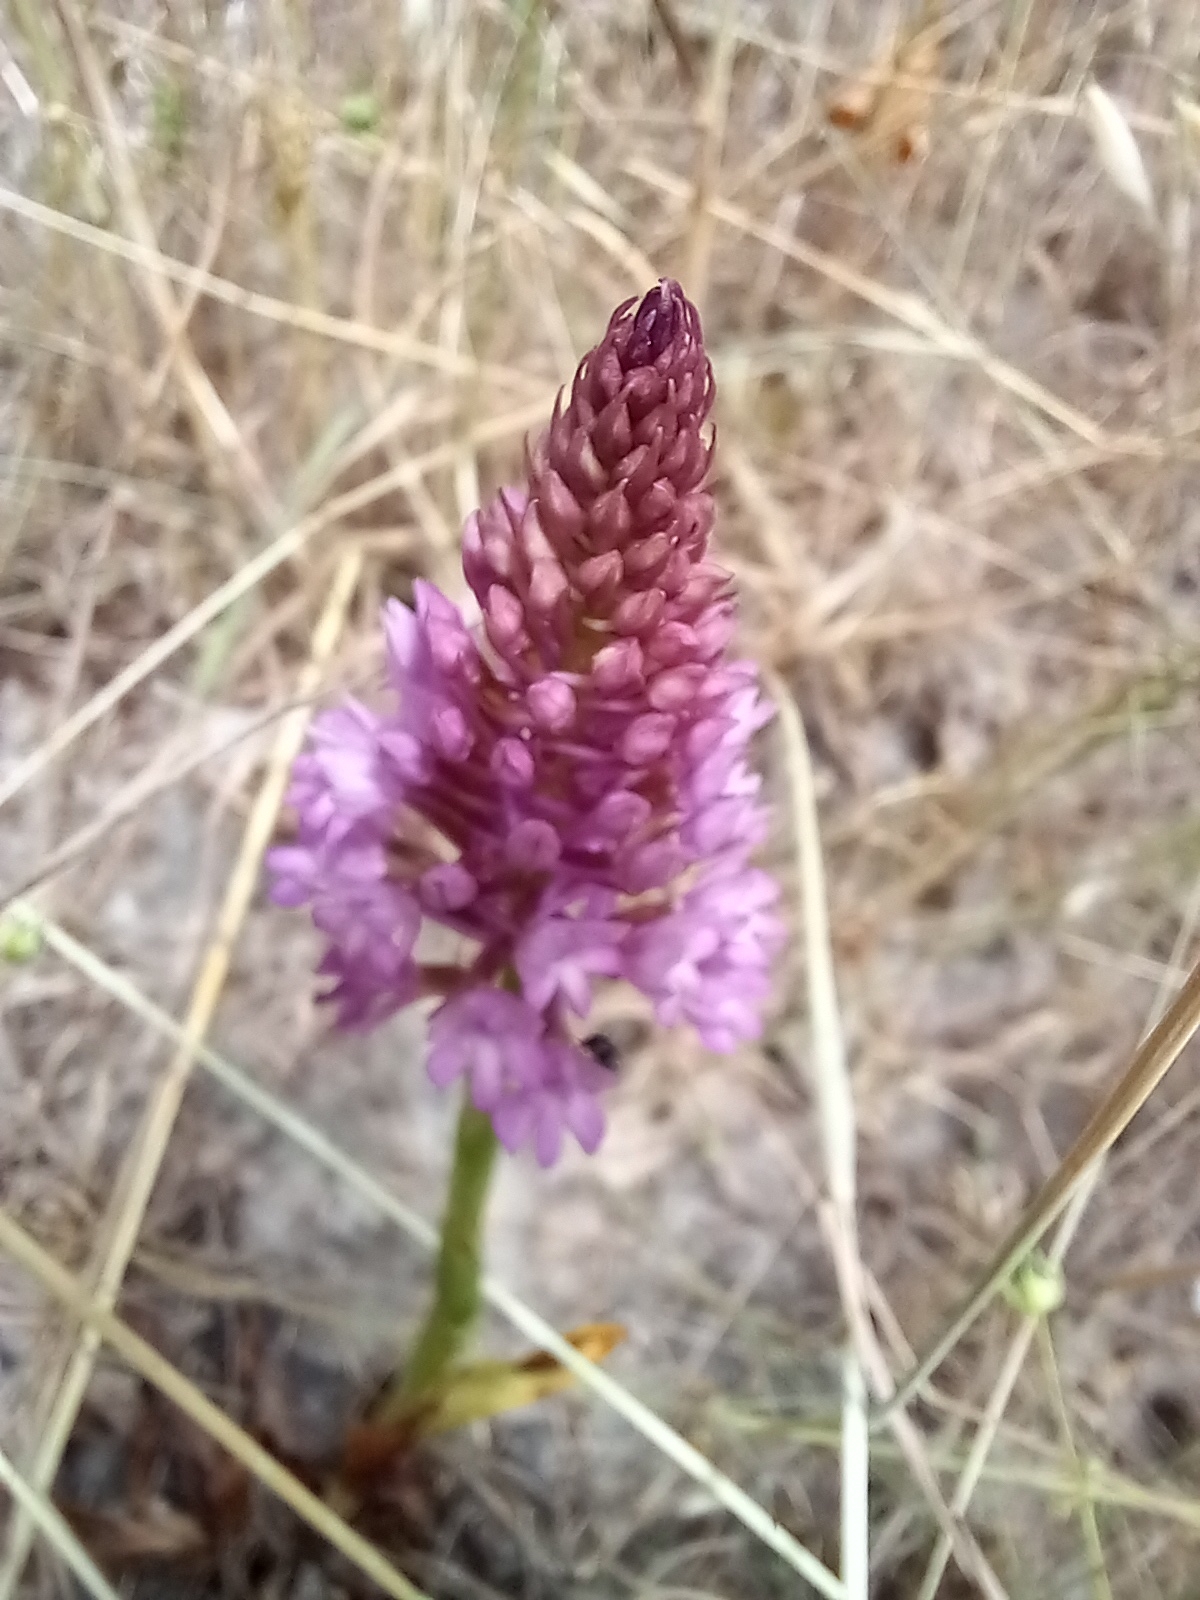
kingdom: Plantae
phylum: Tracheophyta
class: Liliopsida
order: Asparagales
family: Orchidaceae
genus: Anacamptis
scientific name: Anacamptis pyramidalis
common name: Pyramidal orchid
